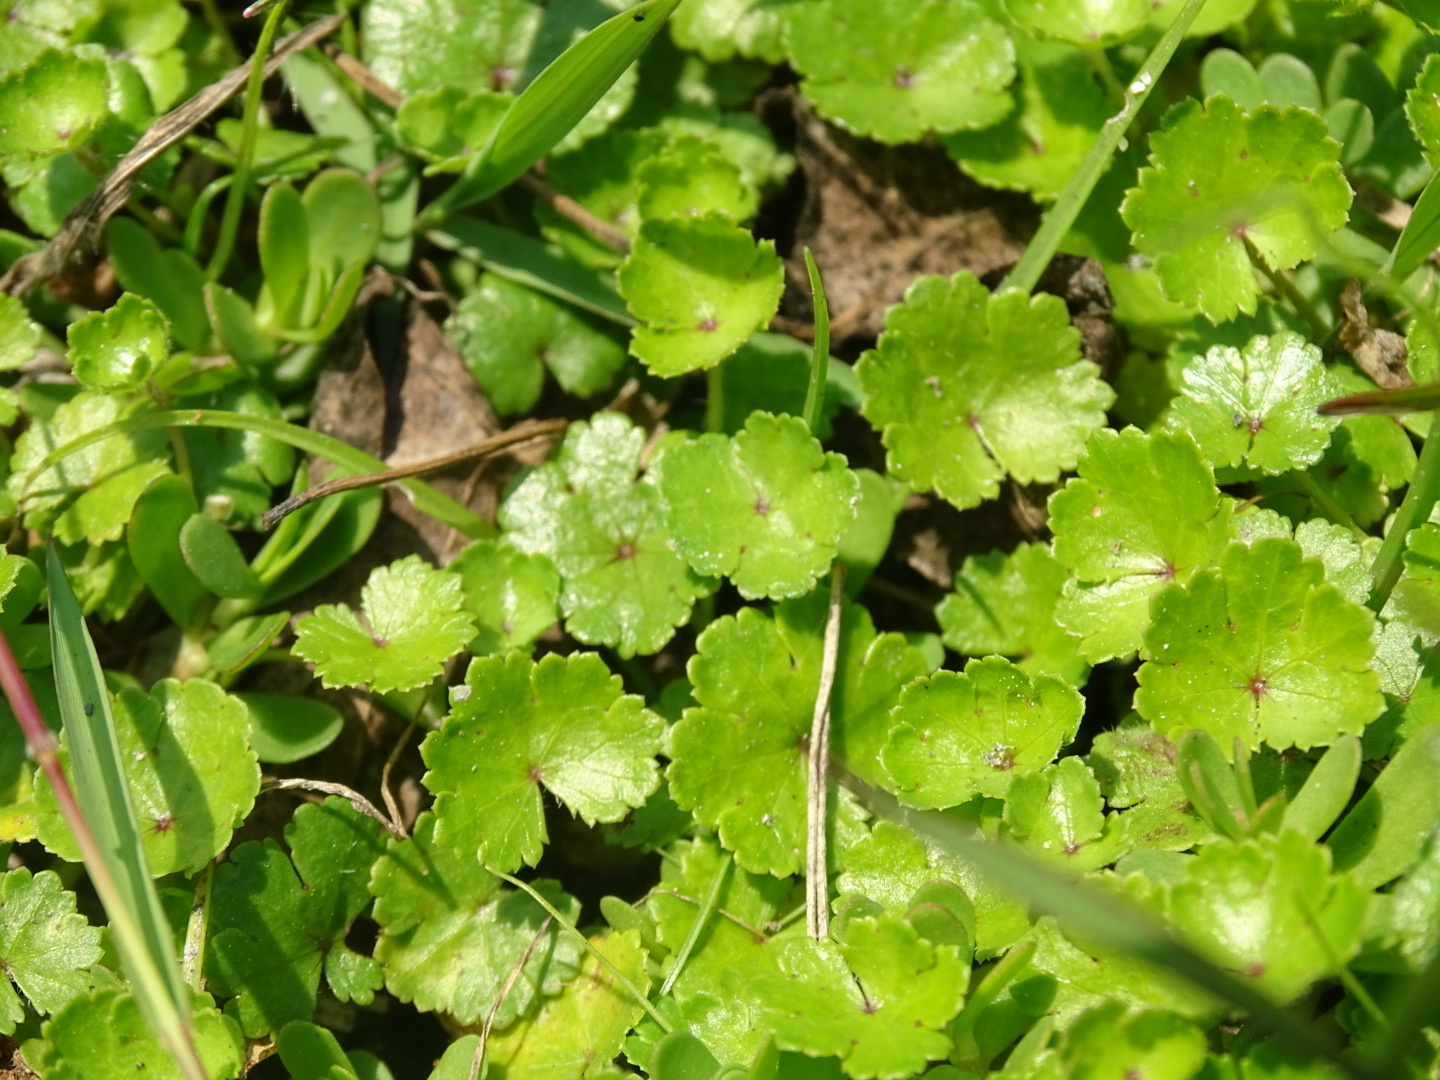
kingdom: Plantae
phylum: Tracheophyta
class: Magnoliopsida
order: Apiales
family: Araliaceae
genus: Hydrocotyle
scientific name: Hydrocotyle sibthorpioides
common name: Lawn marshpennywort
